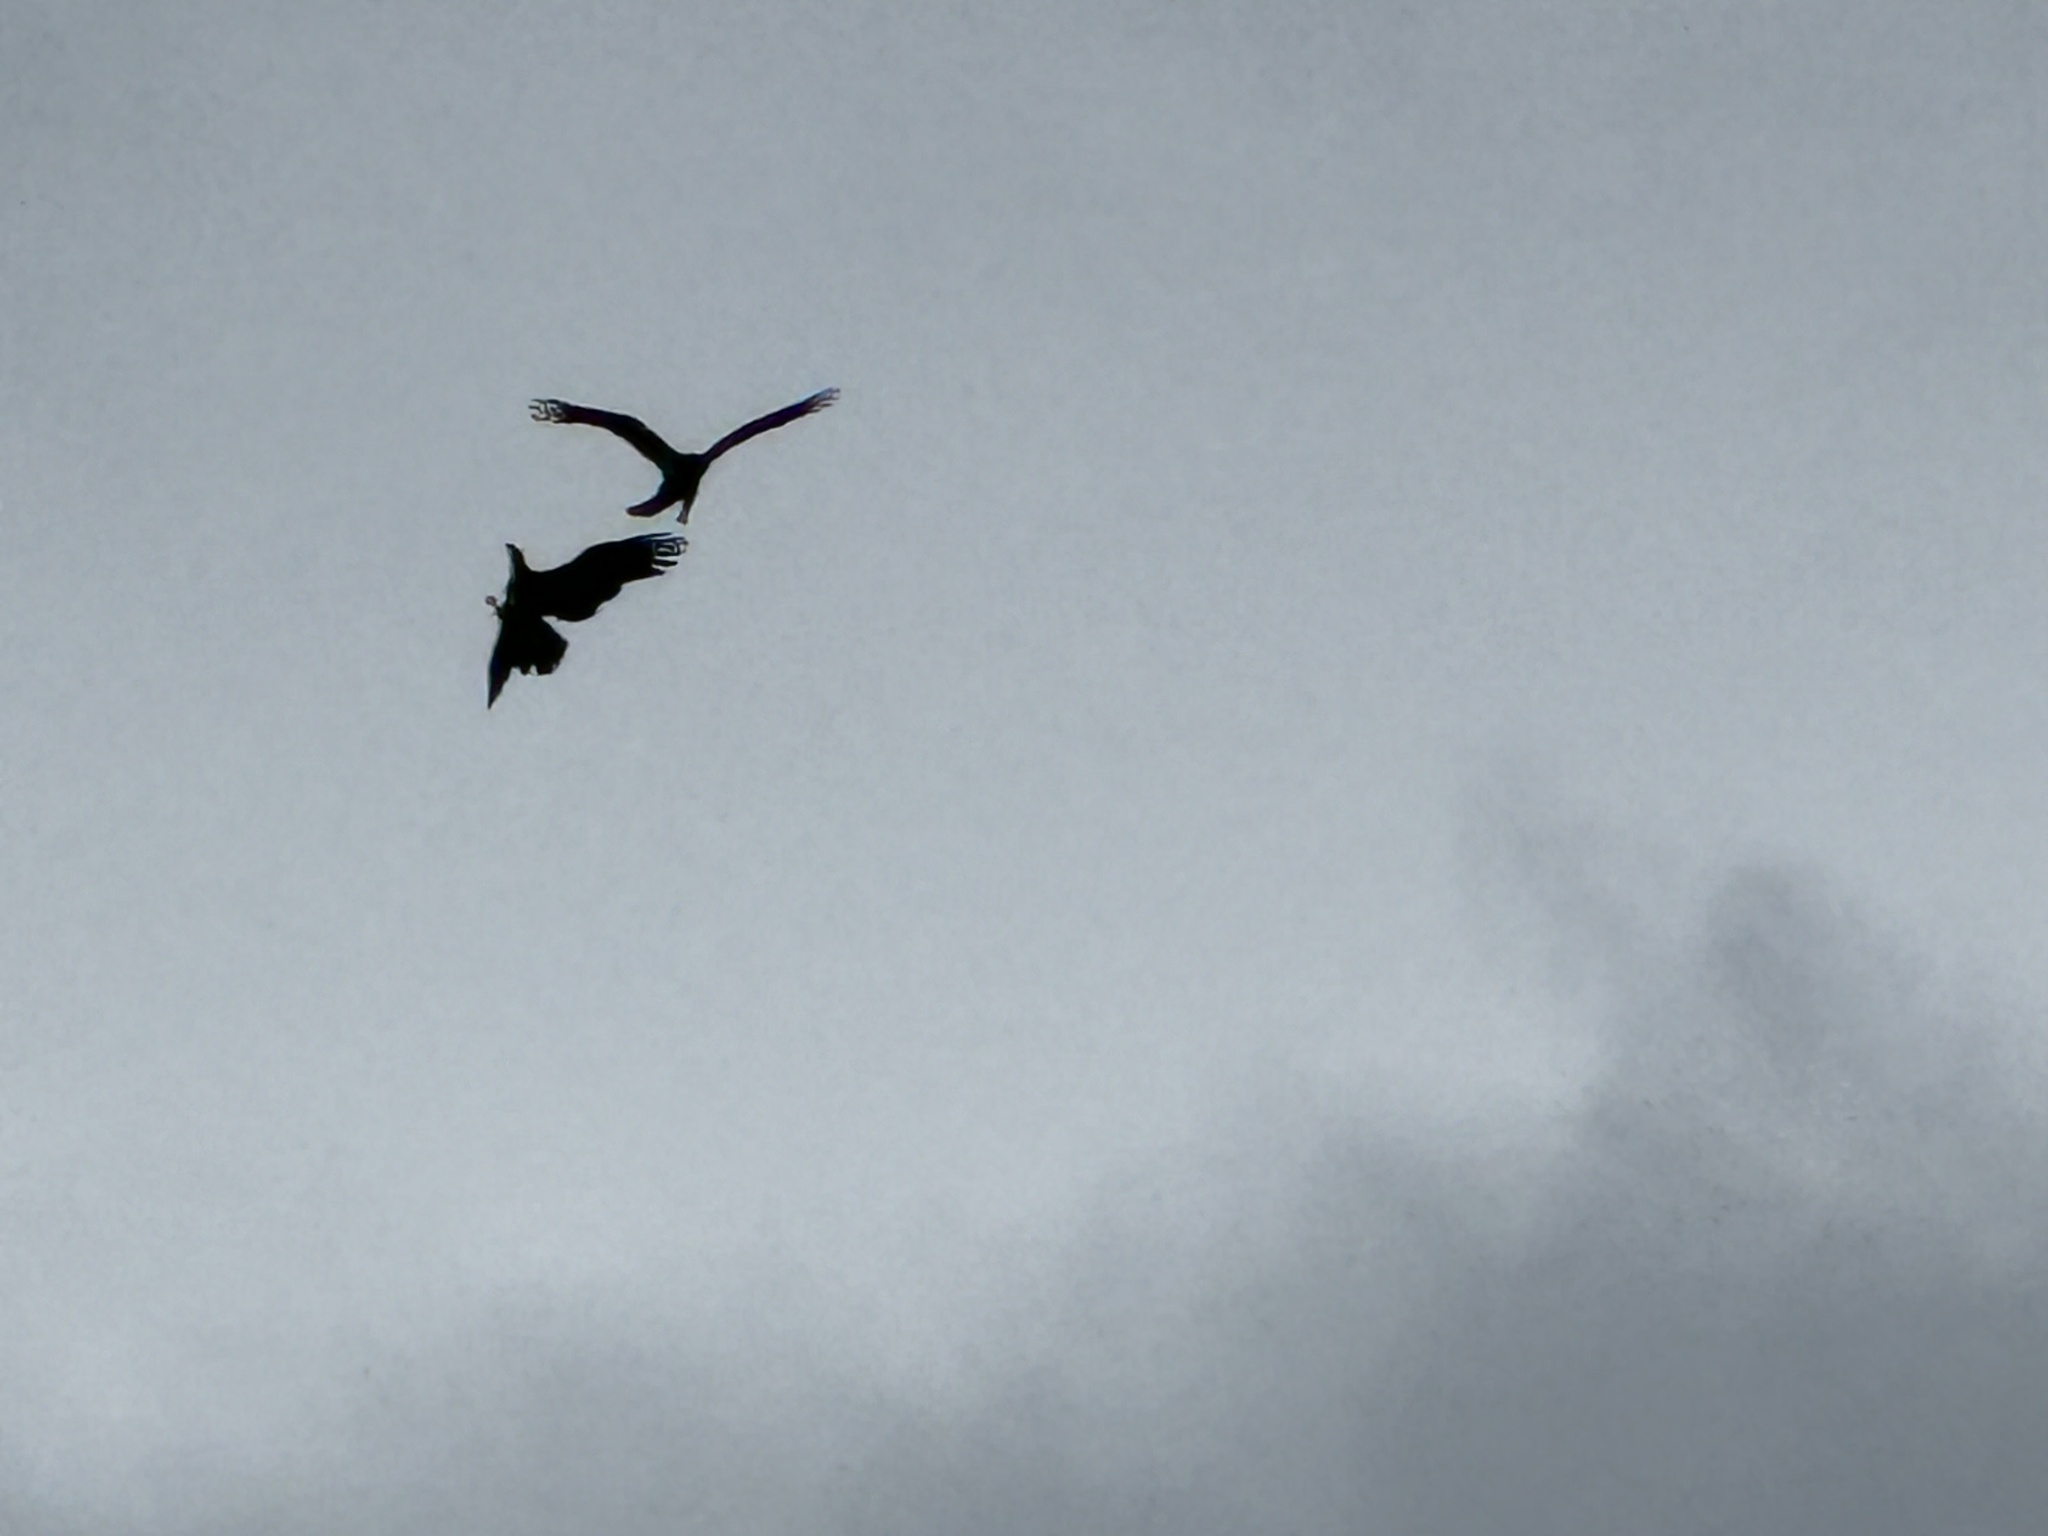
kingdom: Animalia
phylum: Chordata
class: Aves
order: Accipitriformes
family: Accipitridae
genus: Haliaeetus
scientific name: Haliaeetus leucocephalus
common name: Bald eagle
